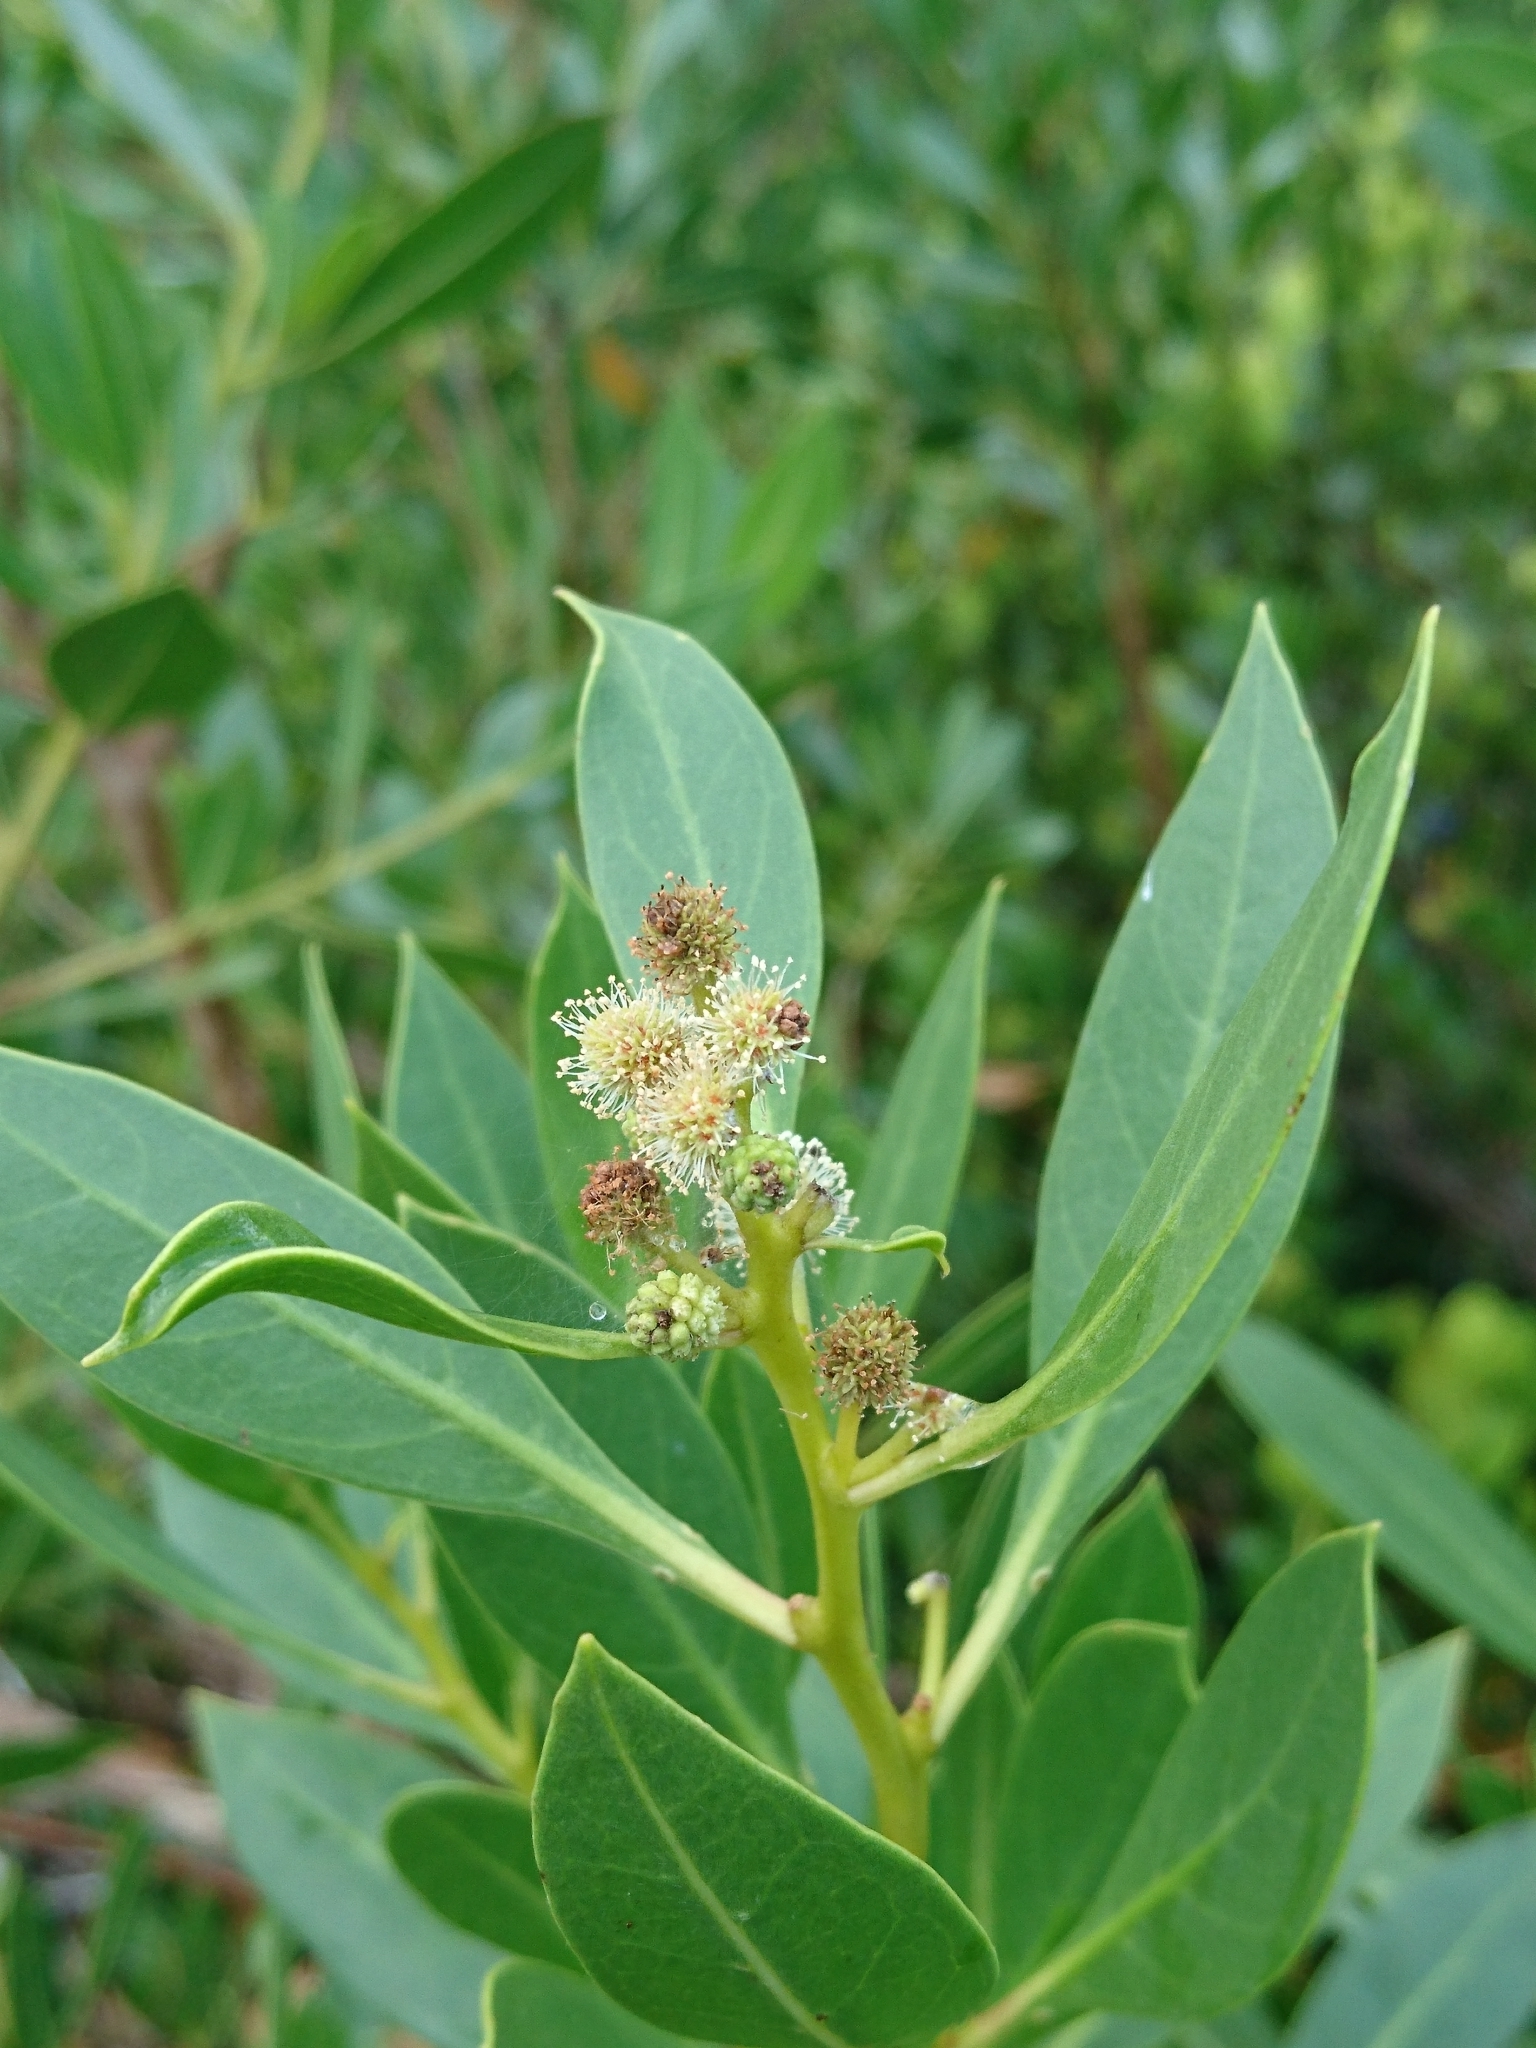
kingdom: Plantae
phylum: Tracheophyta
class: Magnoliopsida
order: Myrtales
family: Combretaceae
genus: Conocarpus
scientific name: Conocarpus erectus
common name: Button mangrove
